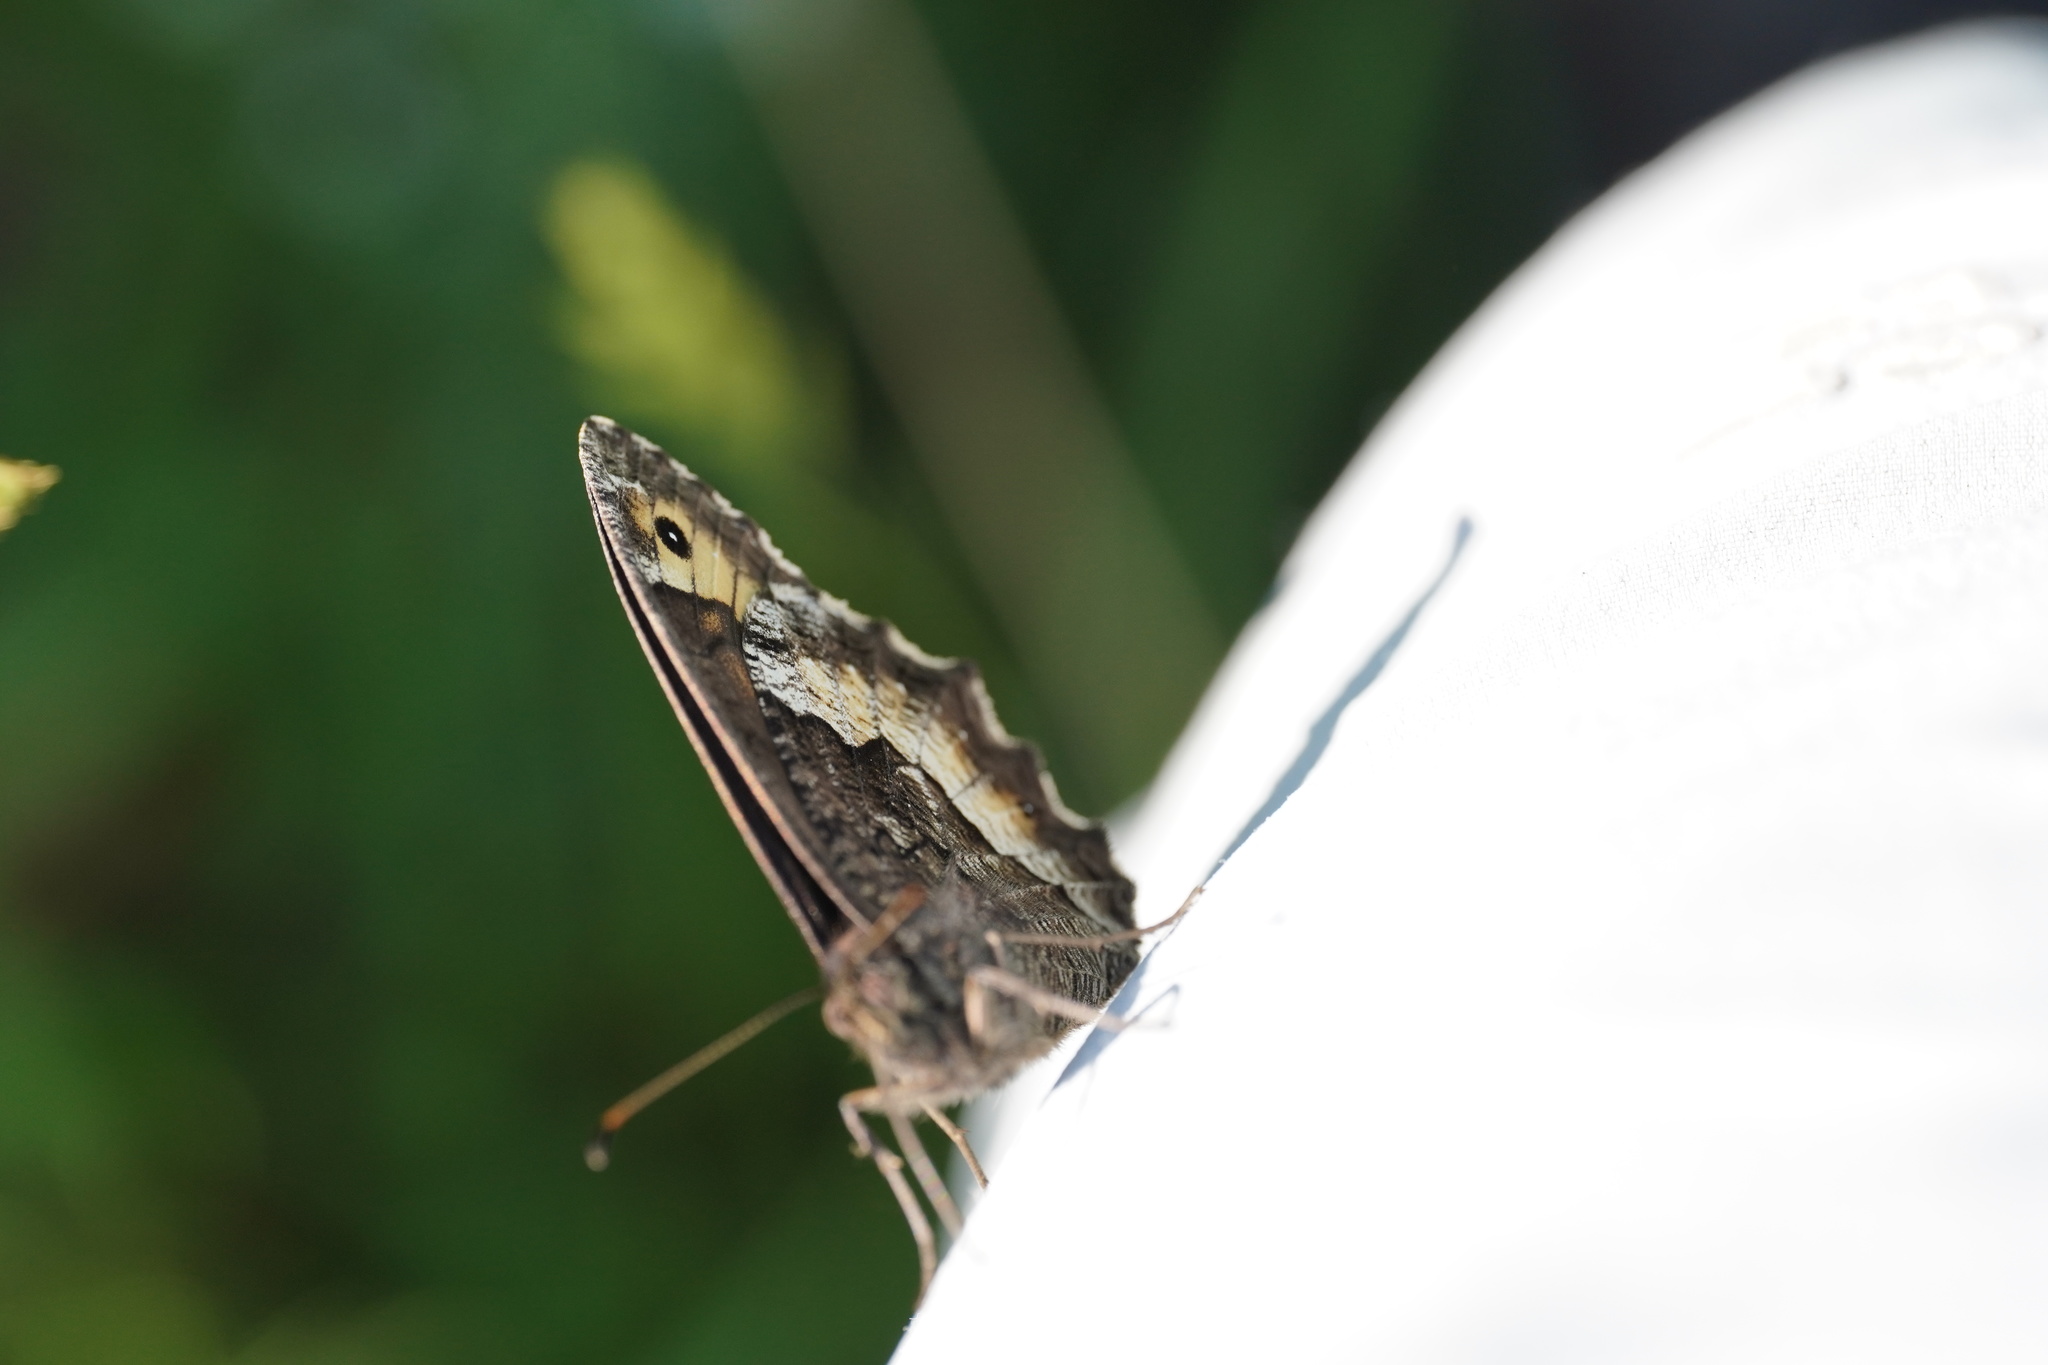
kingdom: Animalia
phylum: Arthropoda
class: Insecta
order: Lepidoptera
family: Nymphalidae
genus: Hipparchia
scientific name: Hipparchia fagi
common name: Woodland grayling
